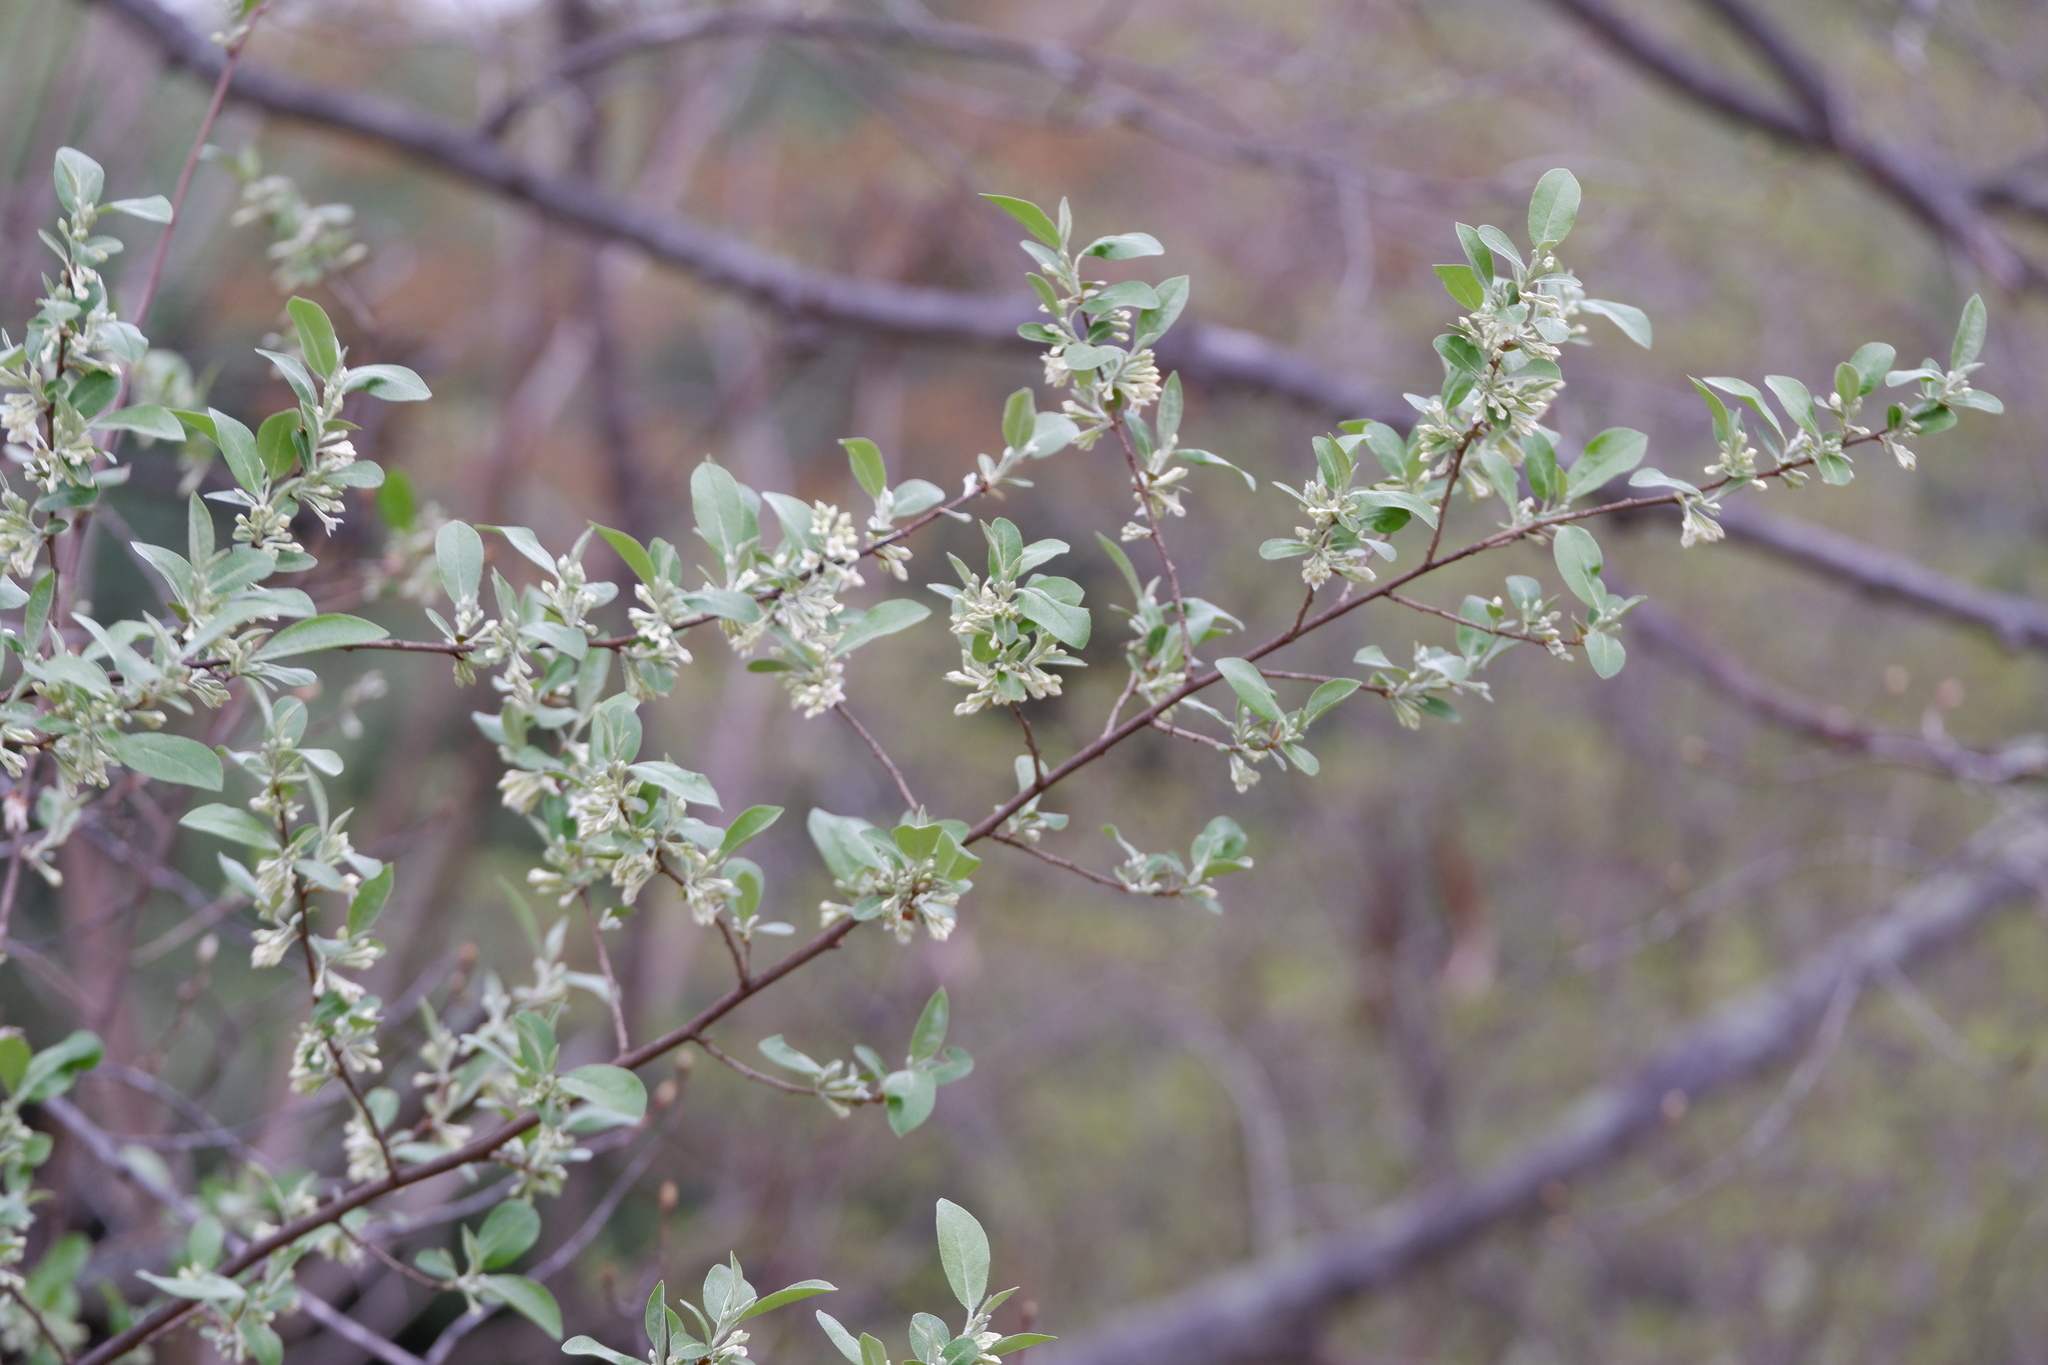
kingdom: Plantae
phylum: Tracheophyta
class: Magnoliopsida
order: Rosales
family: Elaeagnaceae
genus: Elaeagnus
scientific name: Elaeagnus umbellata
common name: Autumn olive
